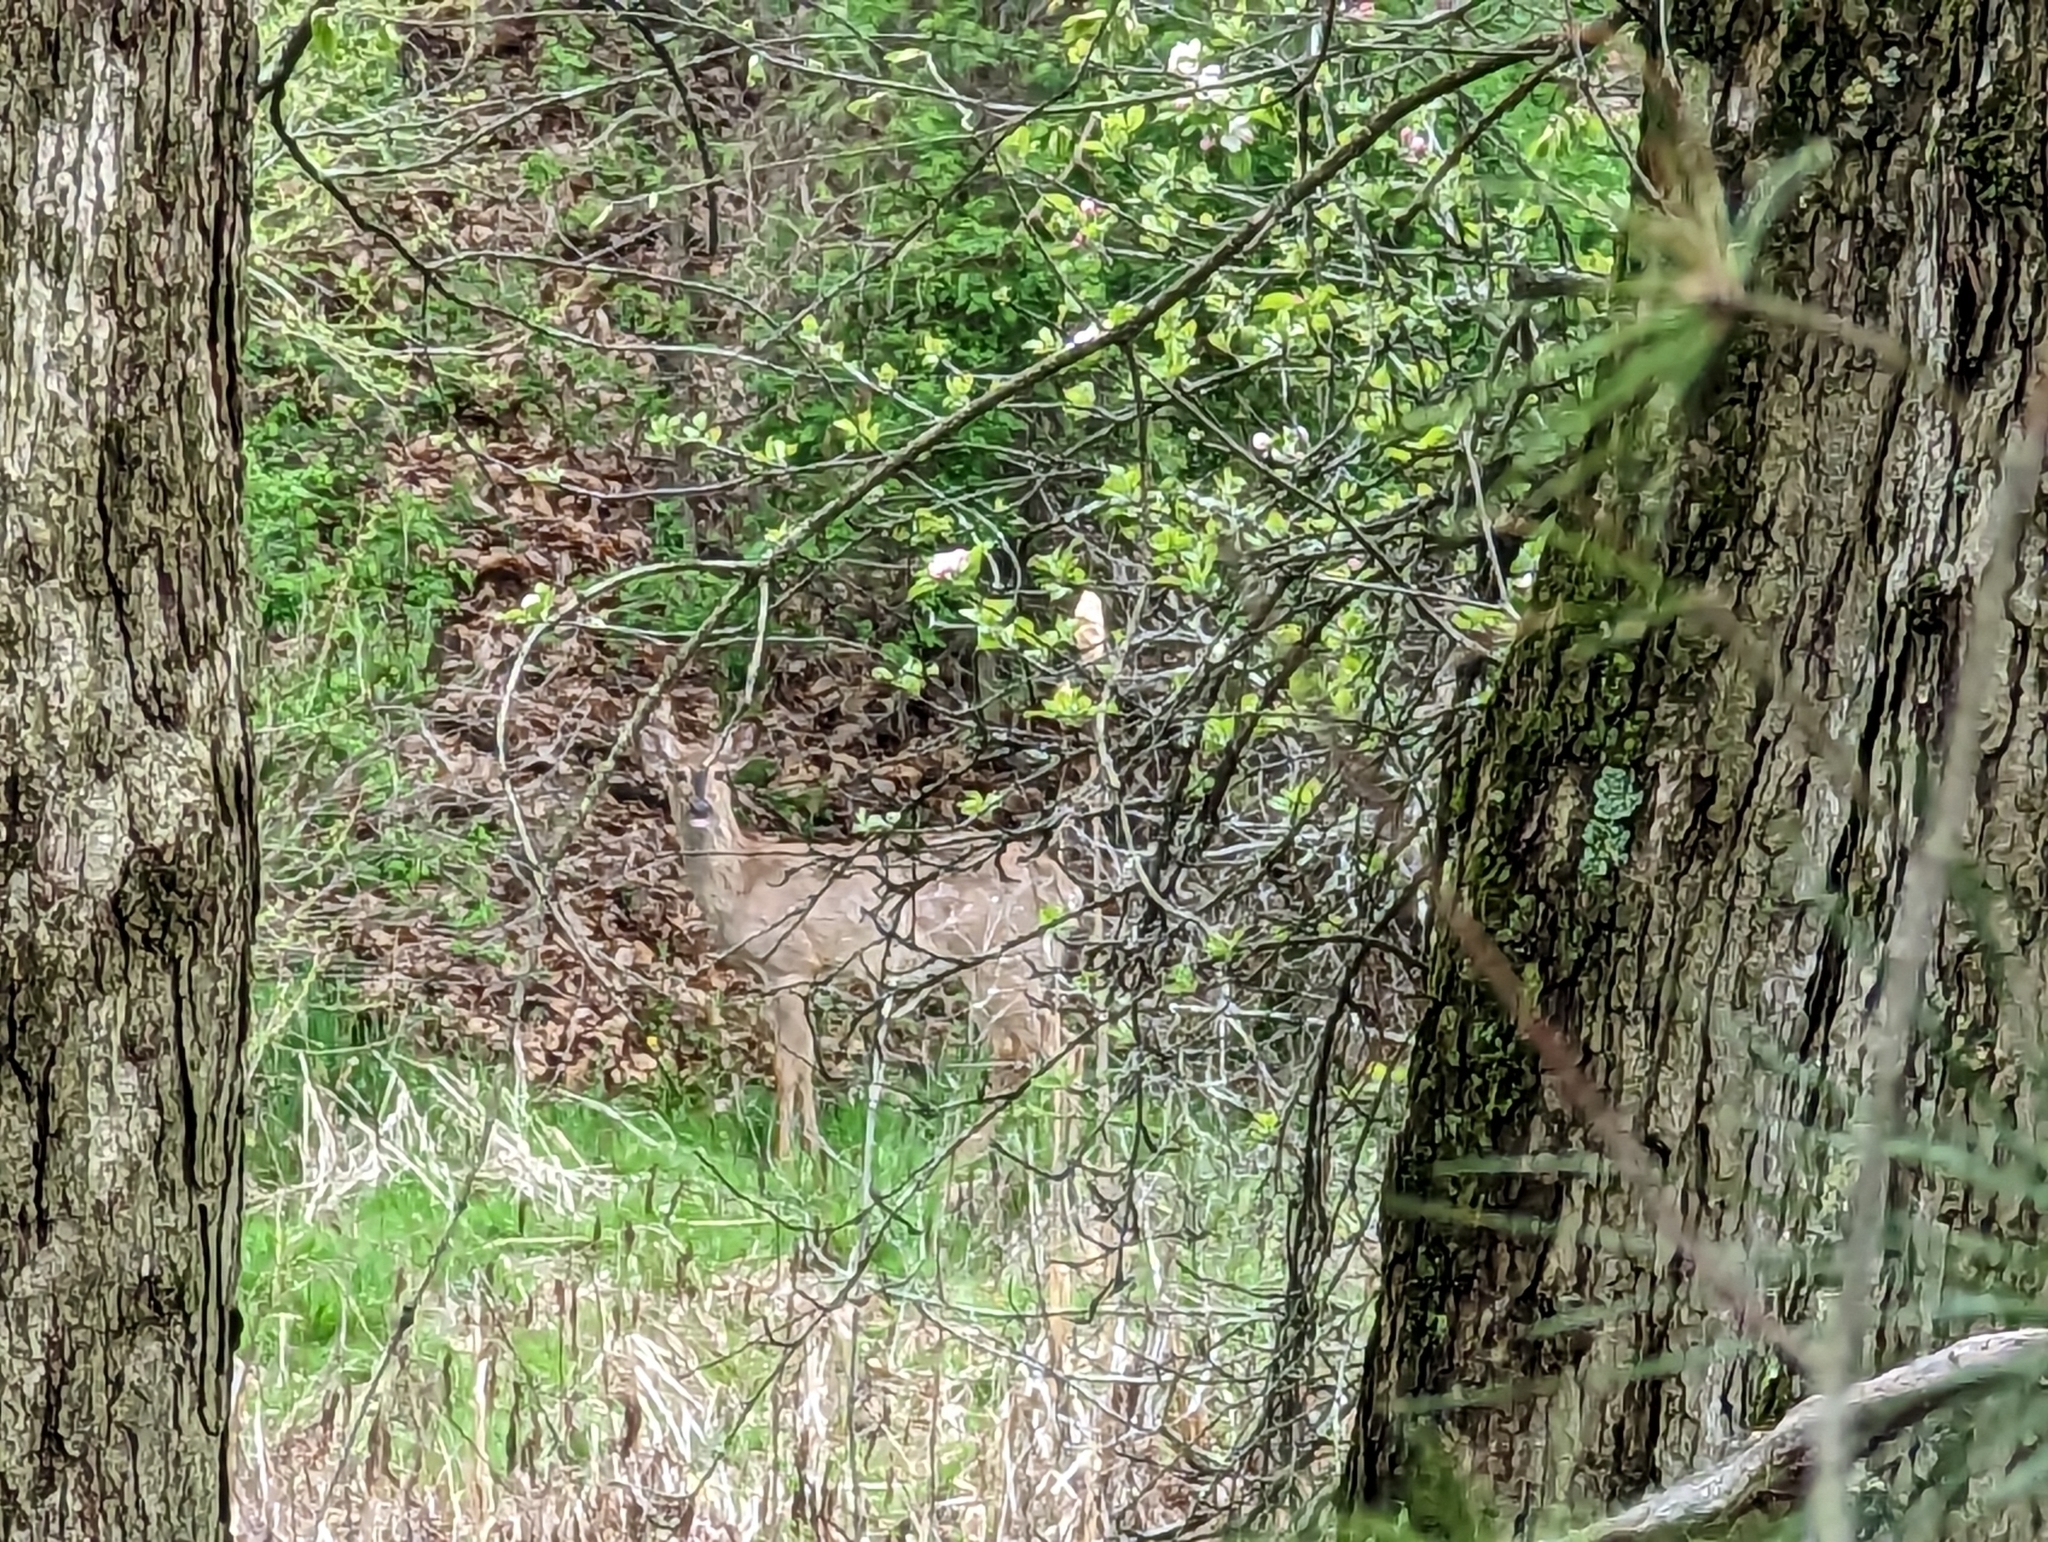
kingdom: Animalia
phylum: Chordata
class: Mammalia
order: Artiodactyla
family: Cervidae
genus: Odocoileus
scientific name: Odocoileus virginianus
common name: White-tailed deer
